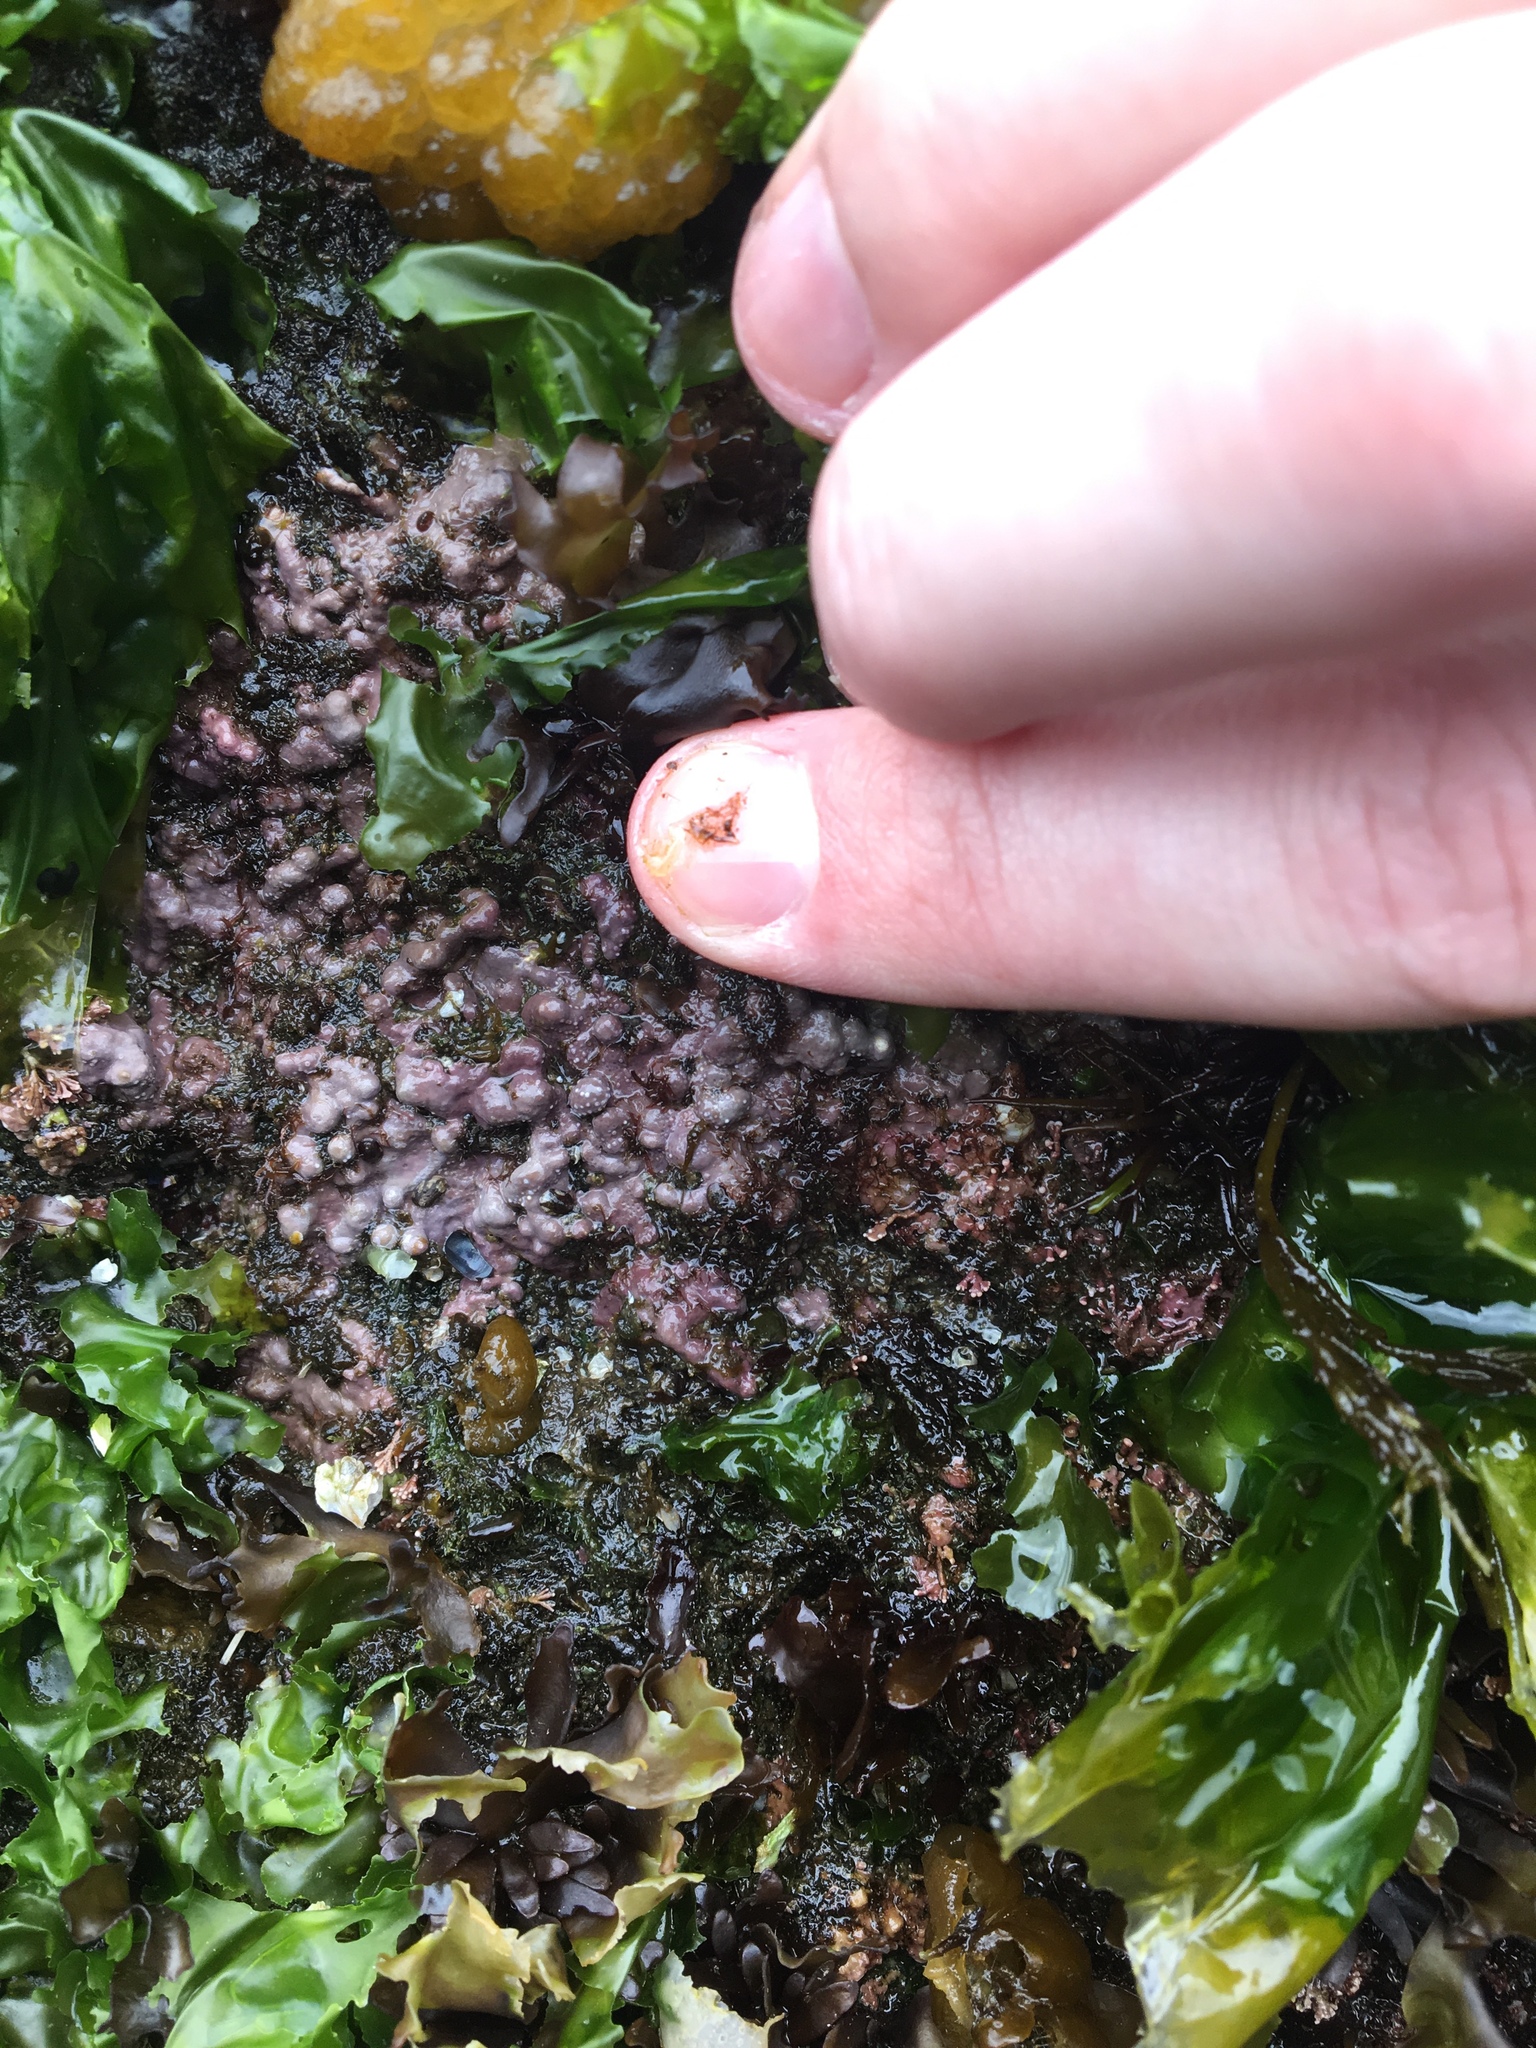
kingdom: Plantae
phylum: Rhodophyta
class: Florideophyceae
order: Corallinales
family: Corallinaceae
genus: Chamberlainium
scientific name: Chamberlainium tumidum
